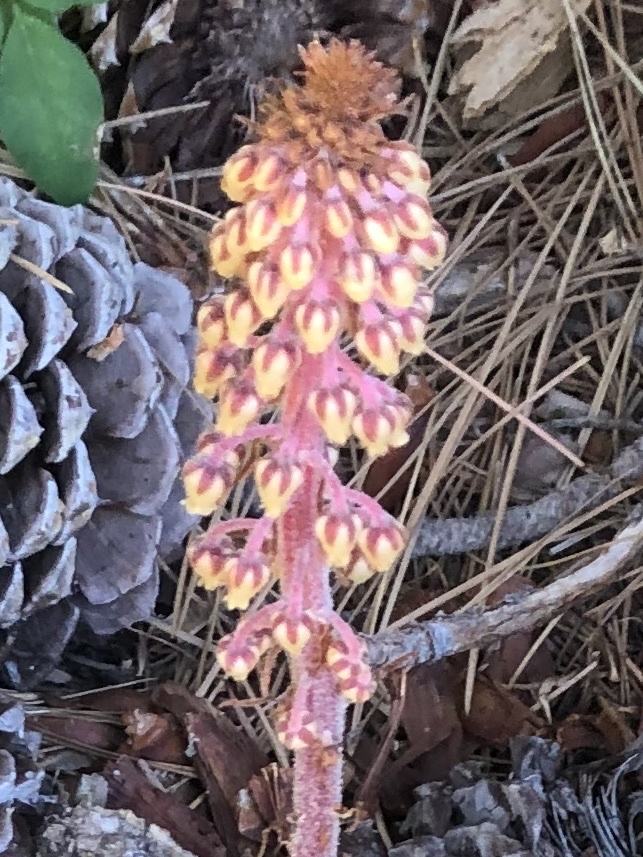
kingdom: Plantae
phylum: Tracheophyta
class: Magnoliopsida
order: Ericales
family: Ericaceae
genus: Pterospora
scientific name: Pterospora andromedea
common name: Giant bird's-nest
